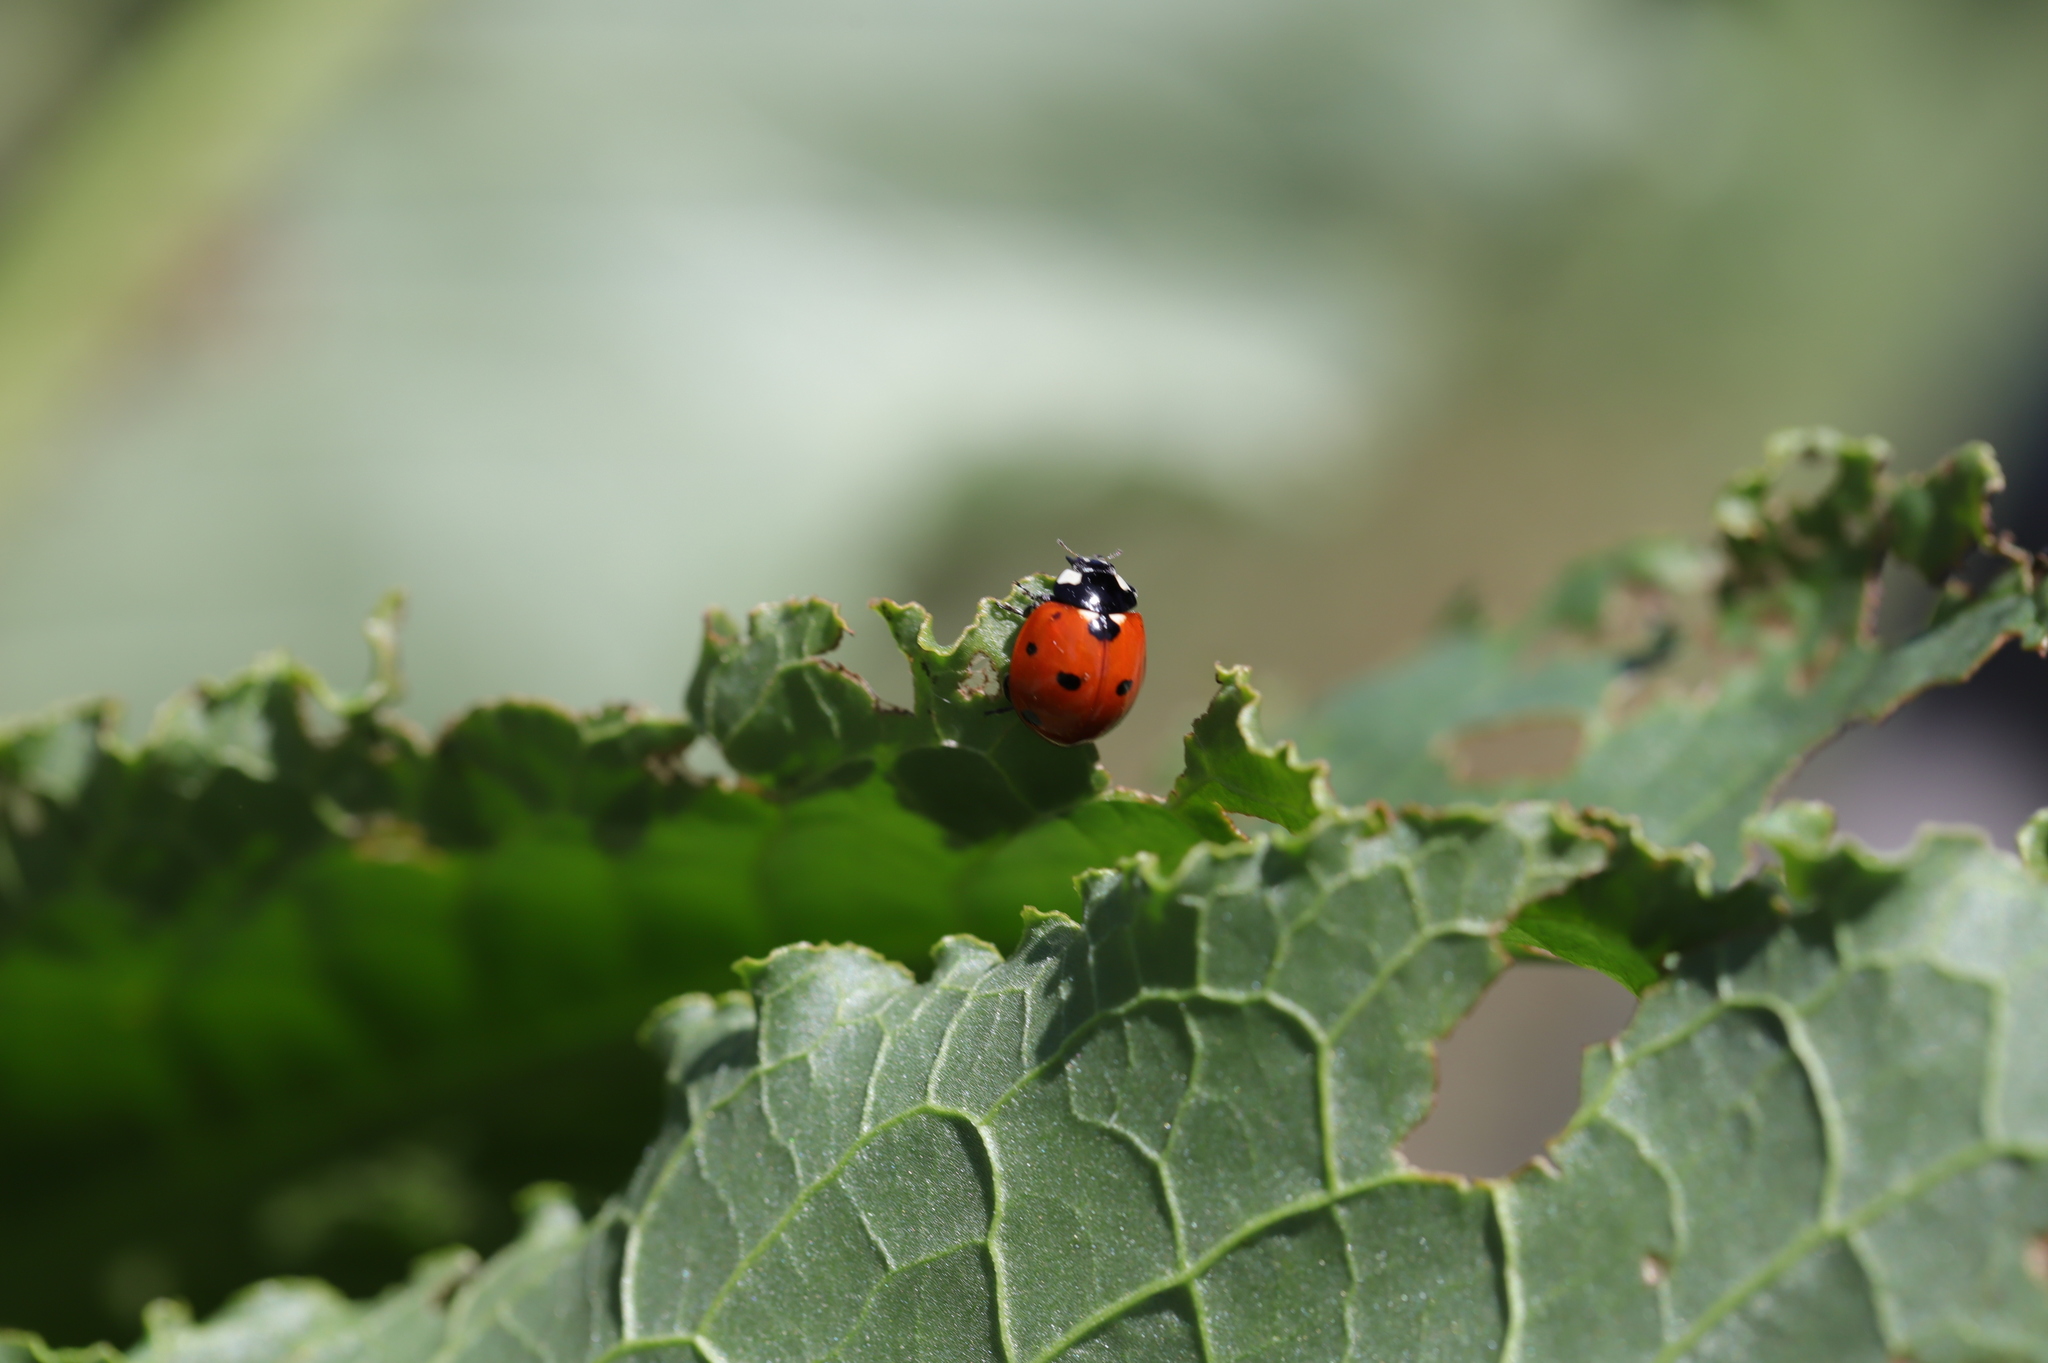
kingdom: Animalia
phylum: Arthropoda
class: Insecta
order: Coleoptera
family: Coccinellidae
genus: Coccinella
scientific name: Coccinella septempunctata
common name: Sevenspotted lady beetle
